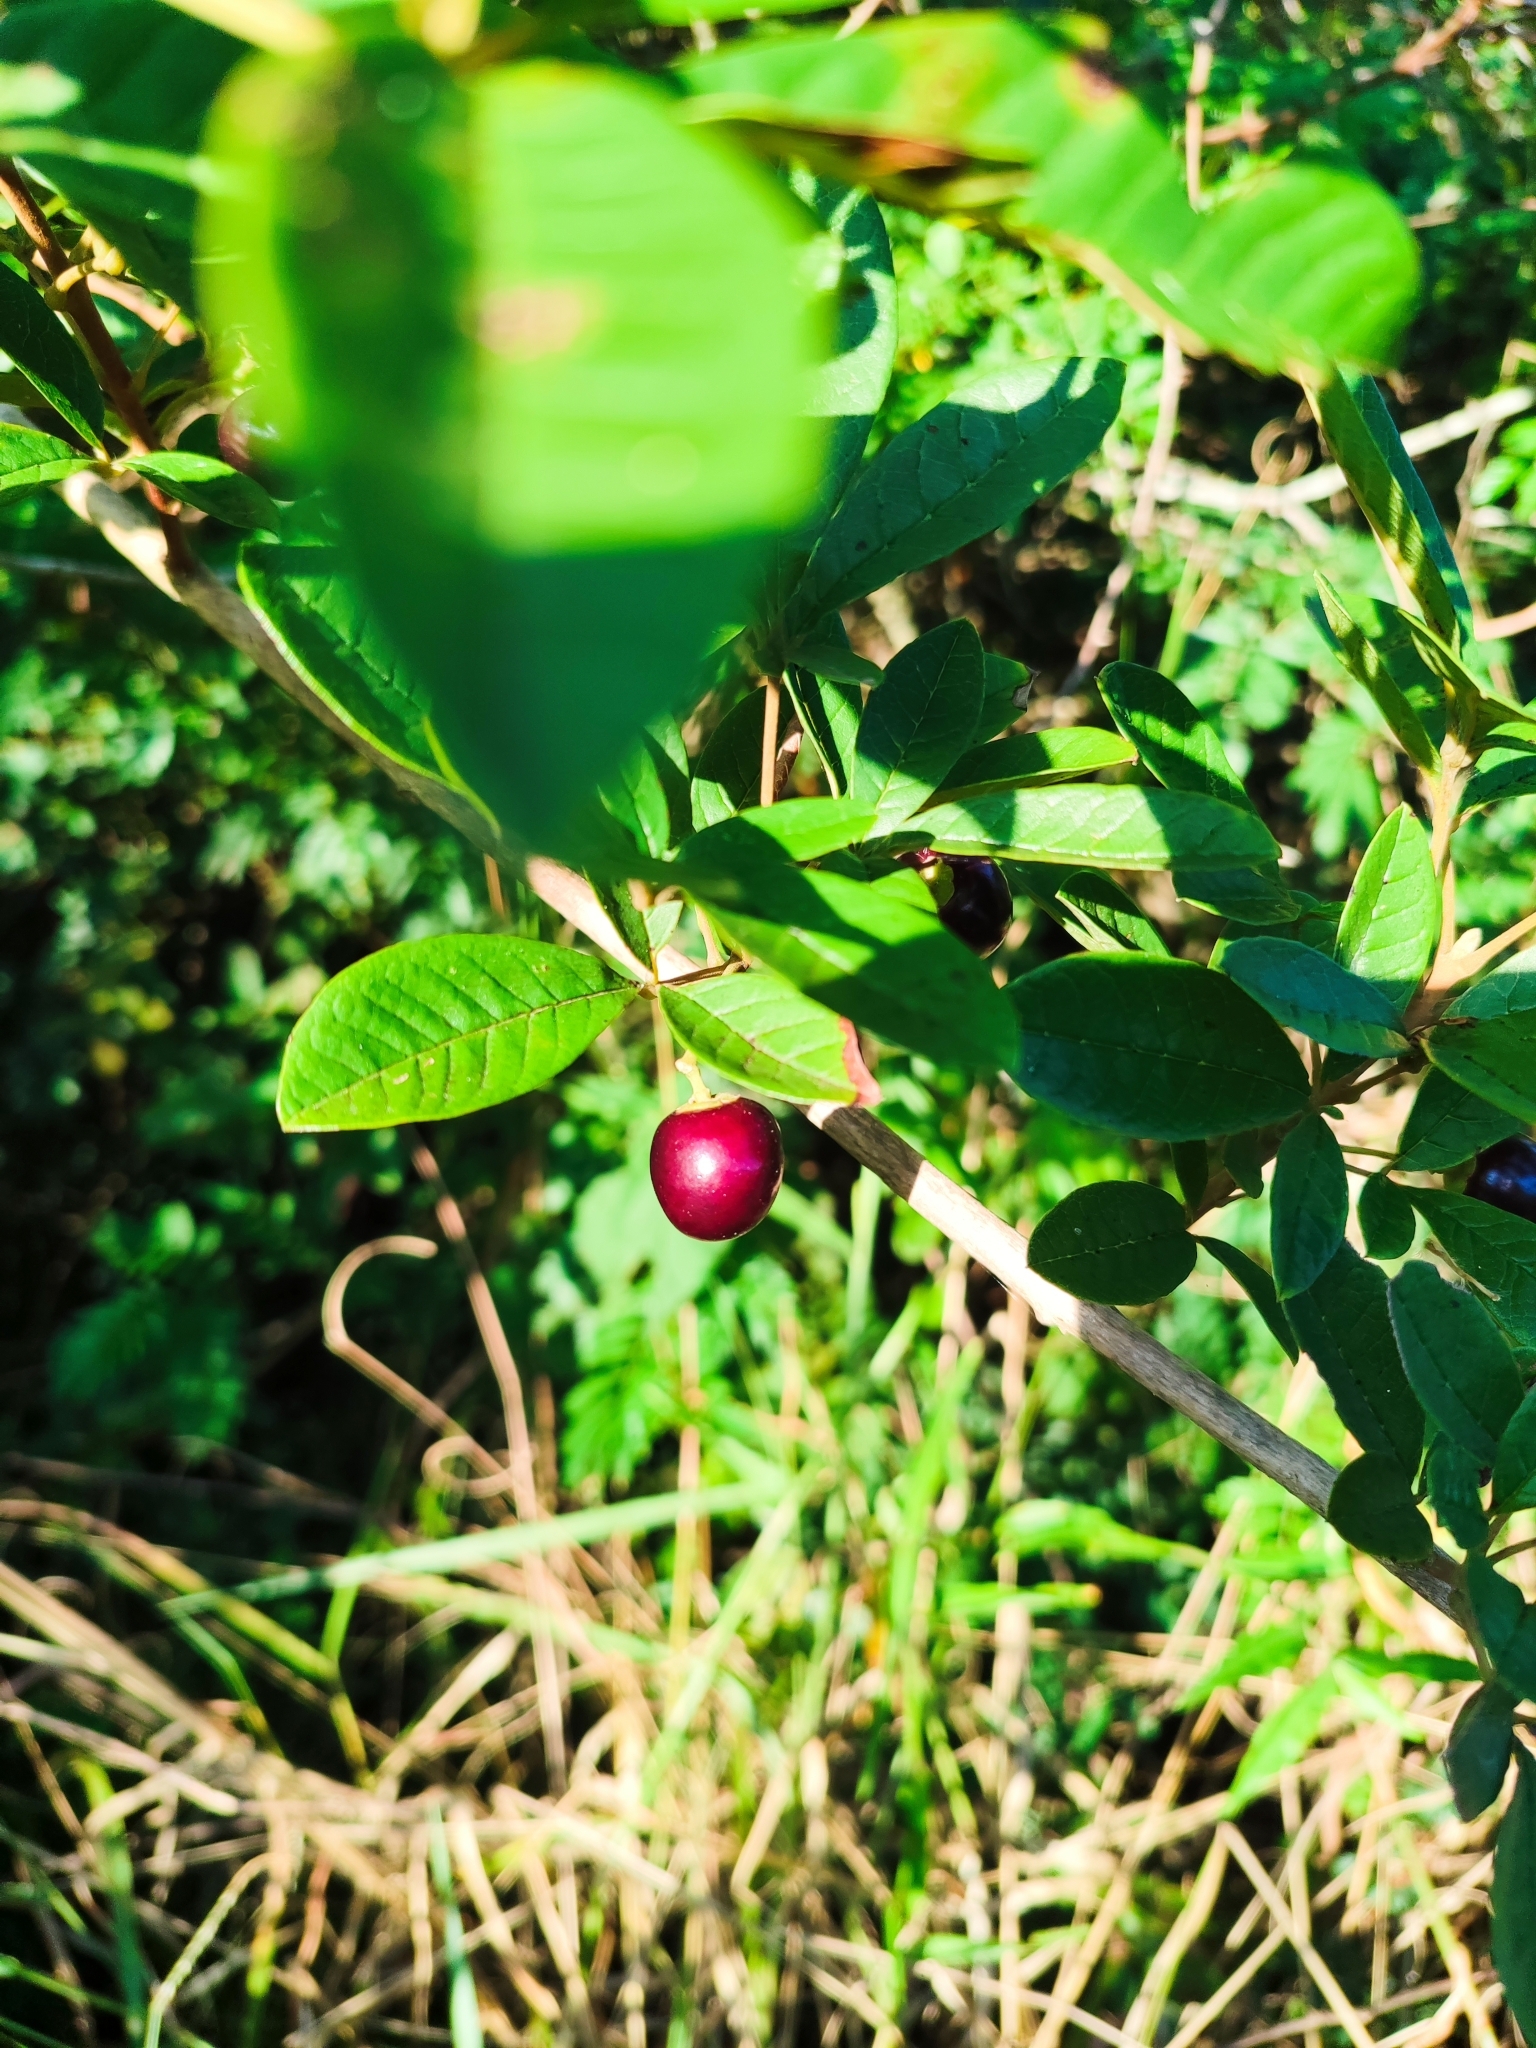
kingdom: Plantae
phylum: Tracheophyta
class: Magnoliopsida
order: Lamiales
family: Lamiaceae
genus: Vitex
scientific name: Vitex megapotamica
